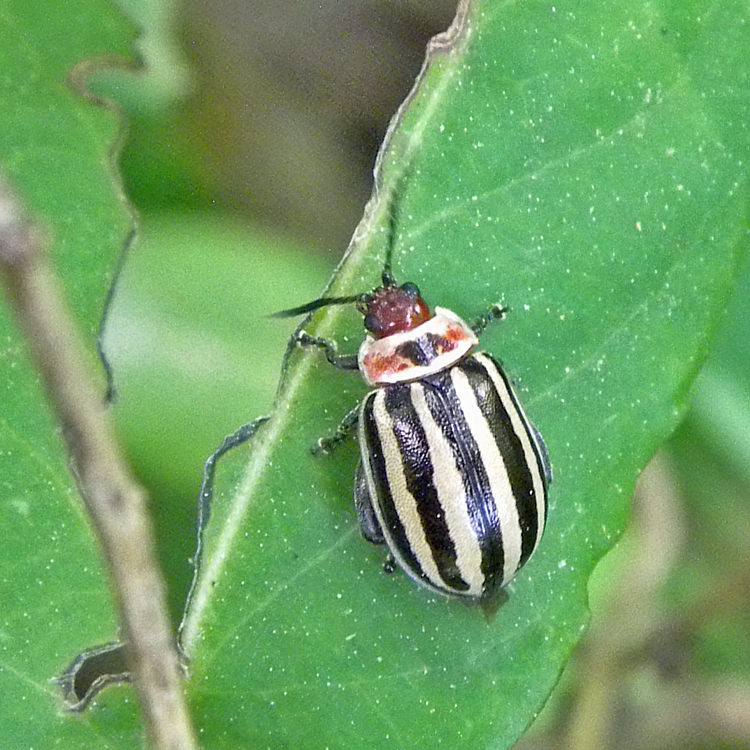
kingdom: Animalia
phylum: Arthropoda
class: Insecta
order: Coleoptera
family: Chrysomelidae
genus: Kuschelina
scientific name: Kuschelina petaurista
